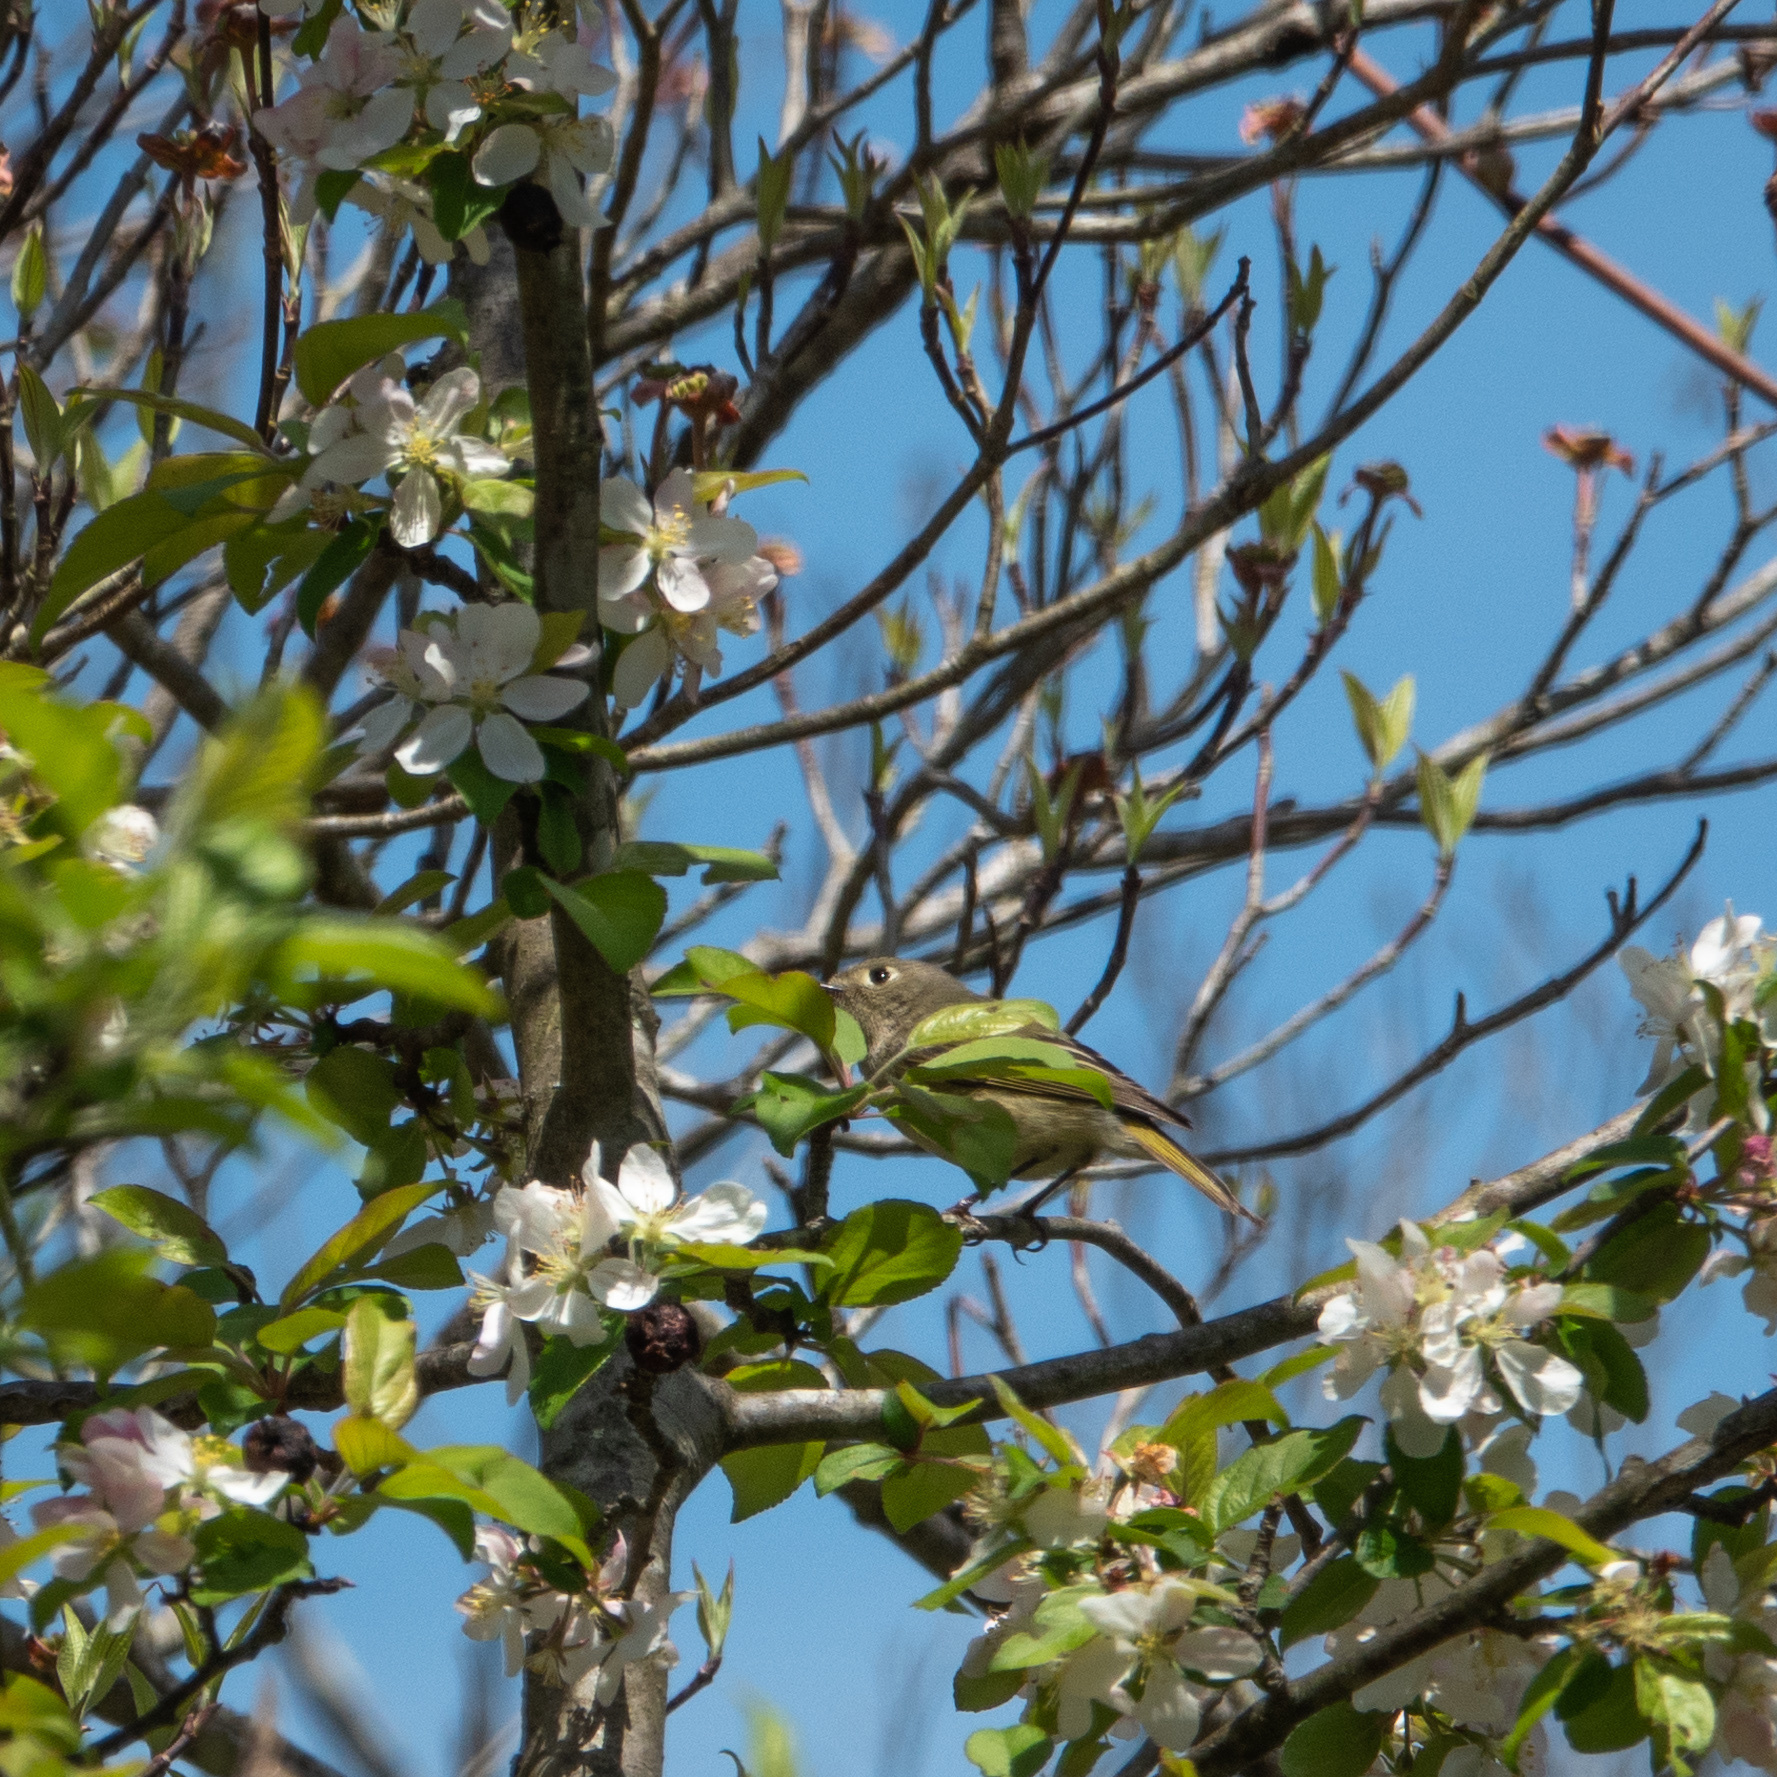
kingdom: Animalia
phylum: Chordata
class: Aves
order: Passeriformes
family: Regulidae
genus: Regulus
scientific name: Regulus calendula
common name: Ruby-crowned kinglet
